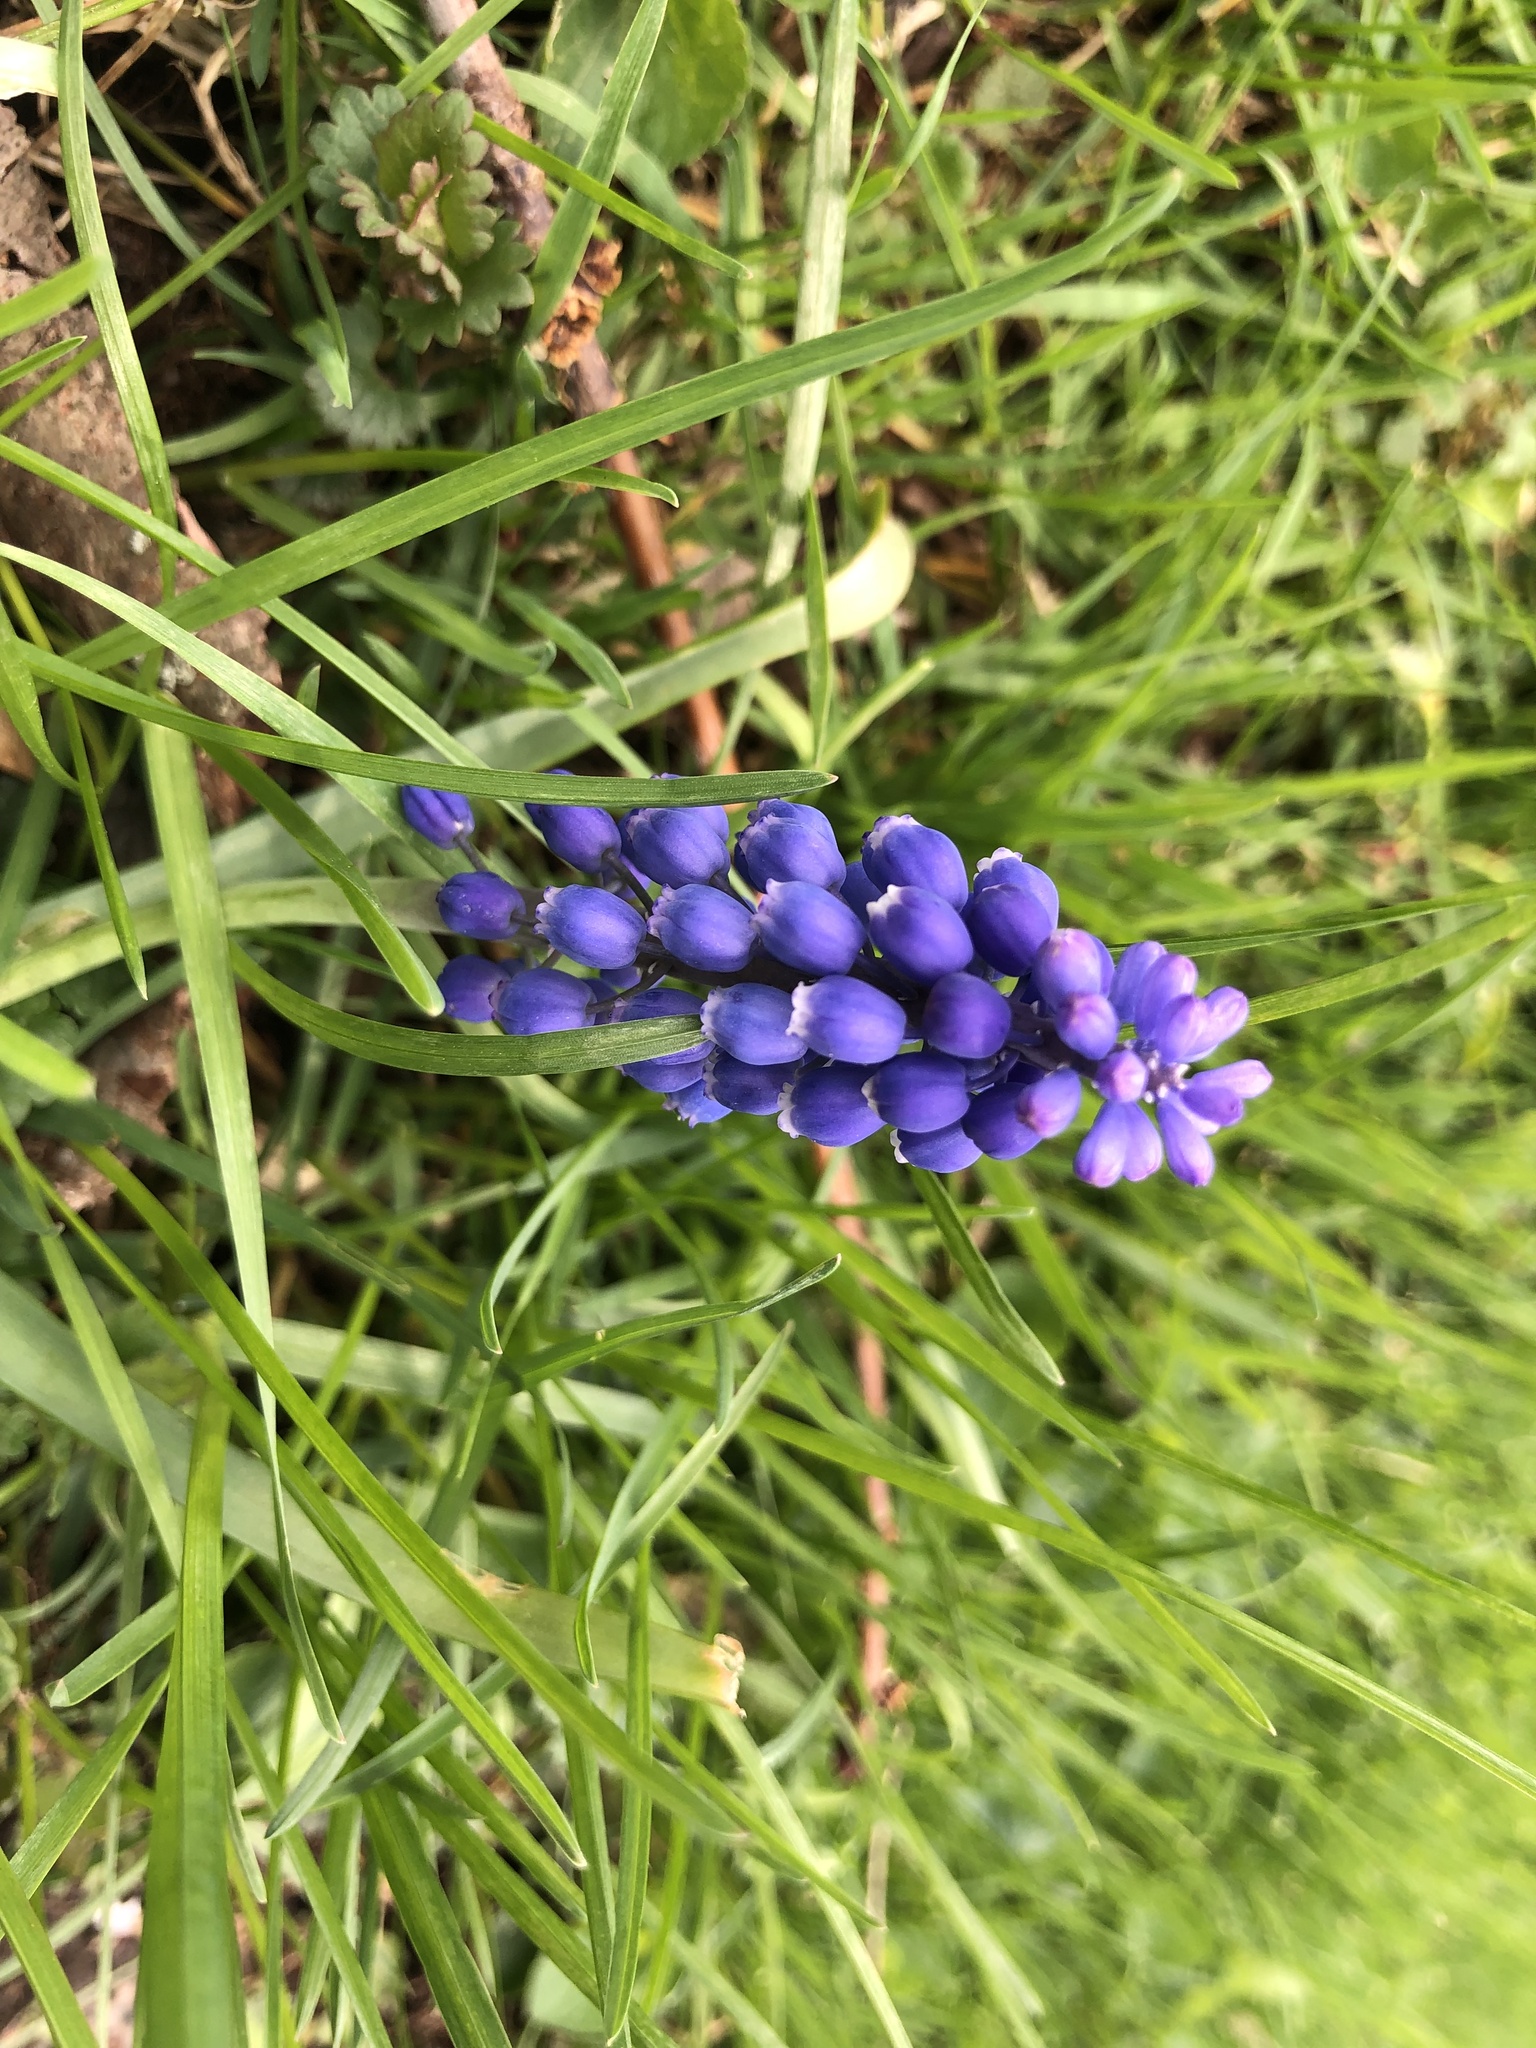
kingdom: Plantae
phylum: Tracheophyta
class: Liliopsida
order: Asparagales
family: Asparagaceae
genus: Muscari
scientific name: Muscari botryoides
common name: Compact grape-hyacinth
